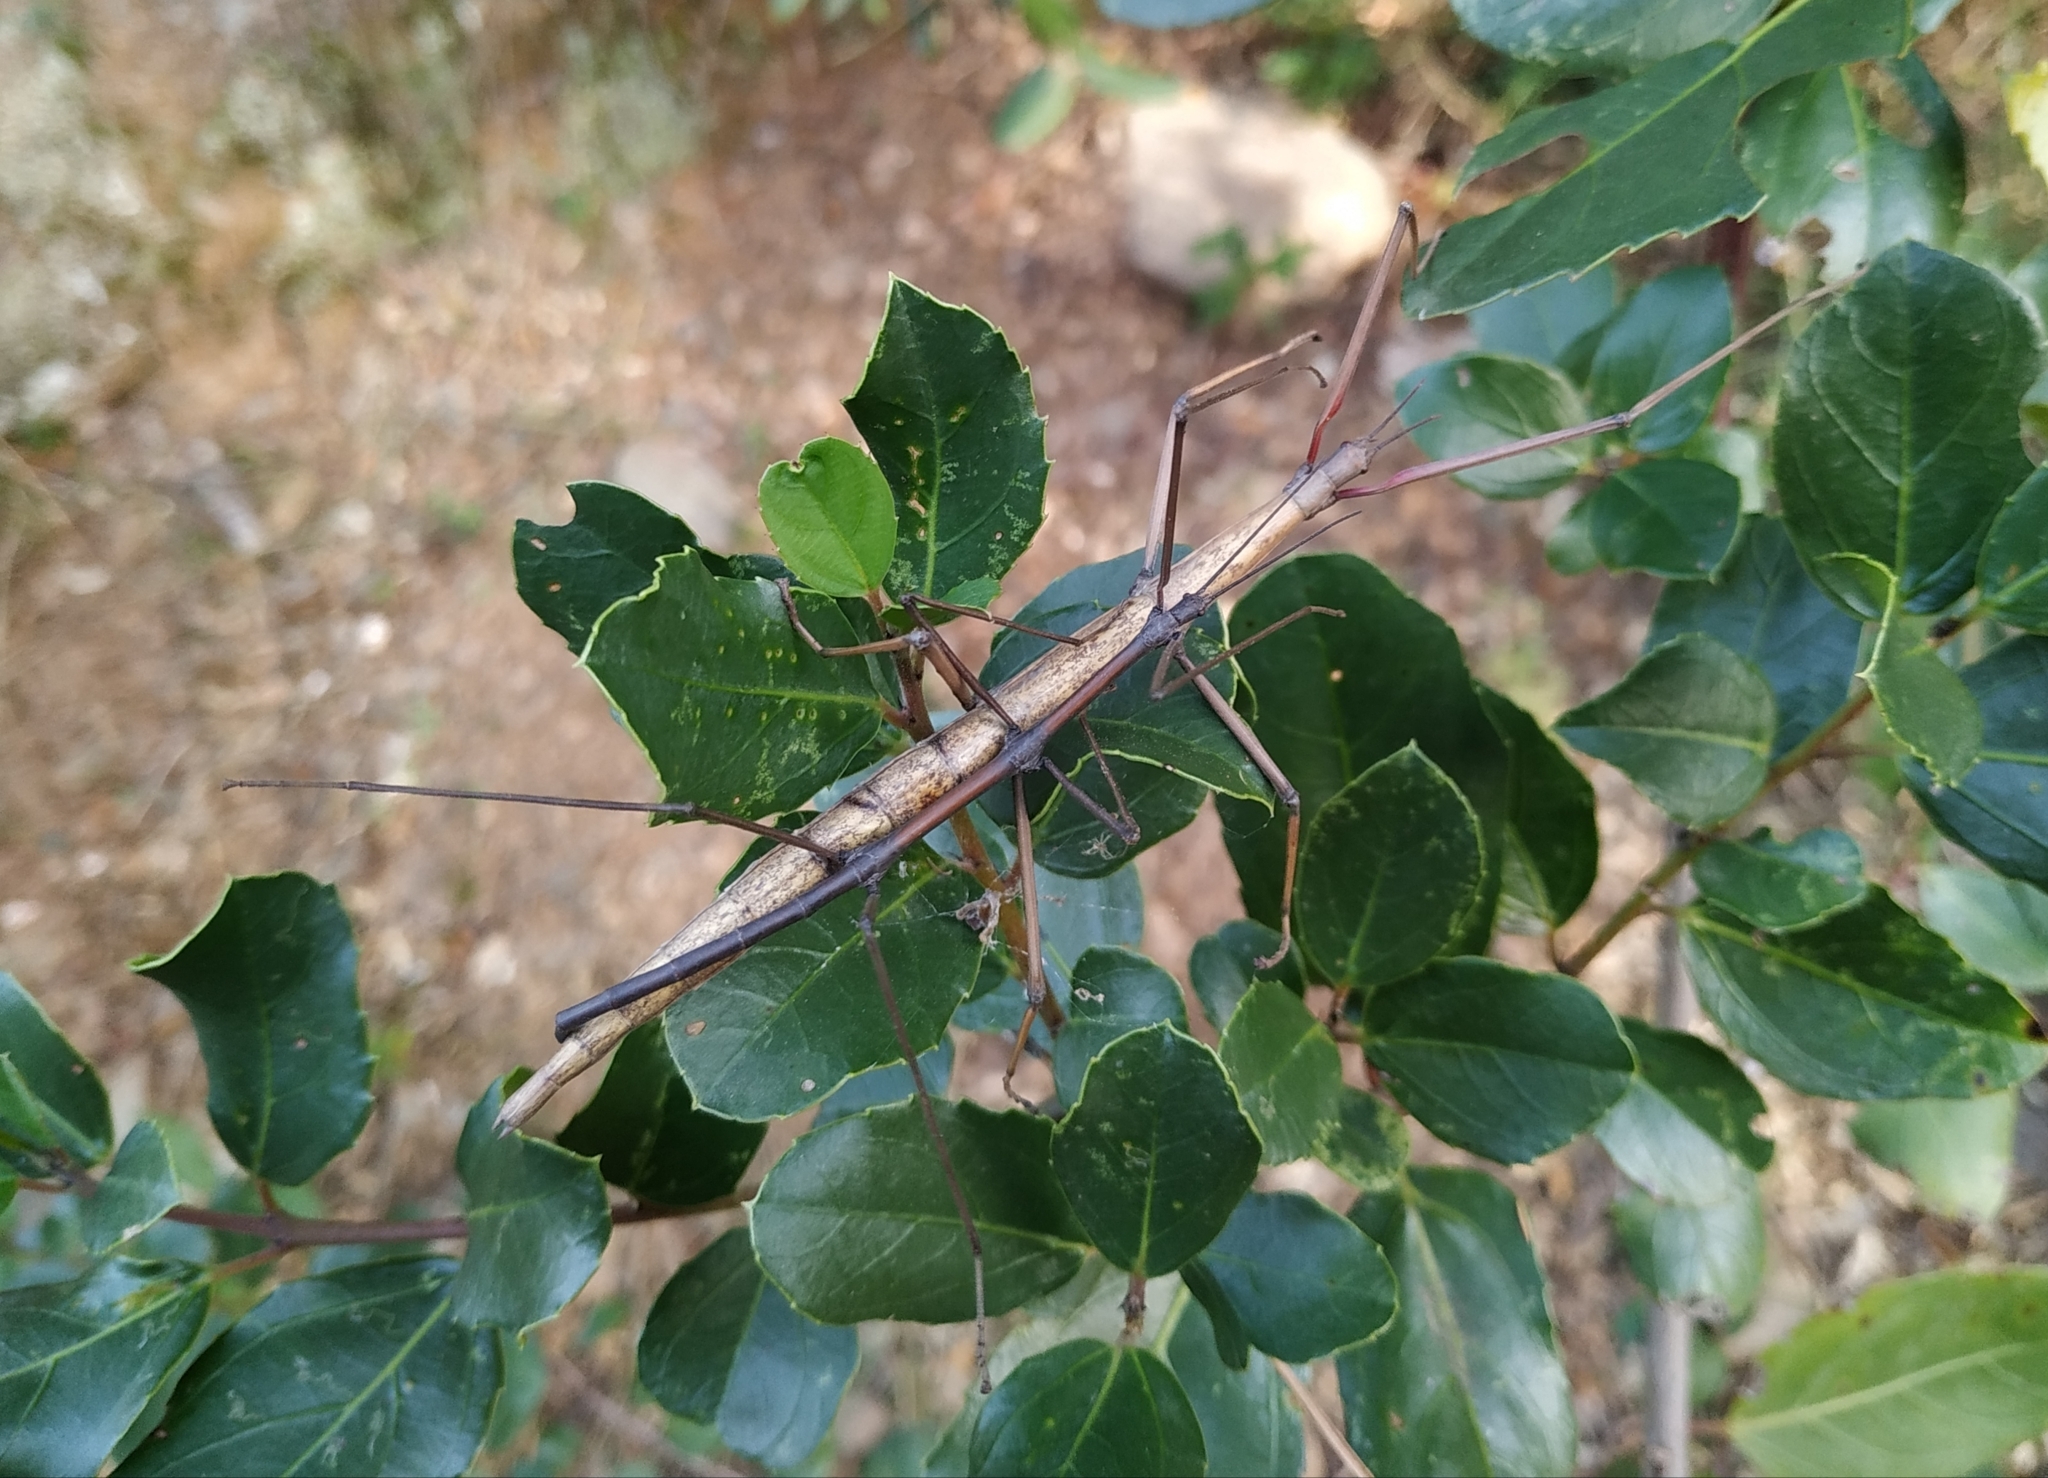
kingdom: Animalia
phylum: Arthropoda
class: Insecta
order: Phasmida
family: Bacillidae
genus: Bacillus
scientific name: Bacillus rossius
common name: Corsican stick-insect
